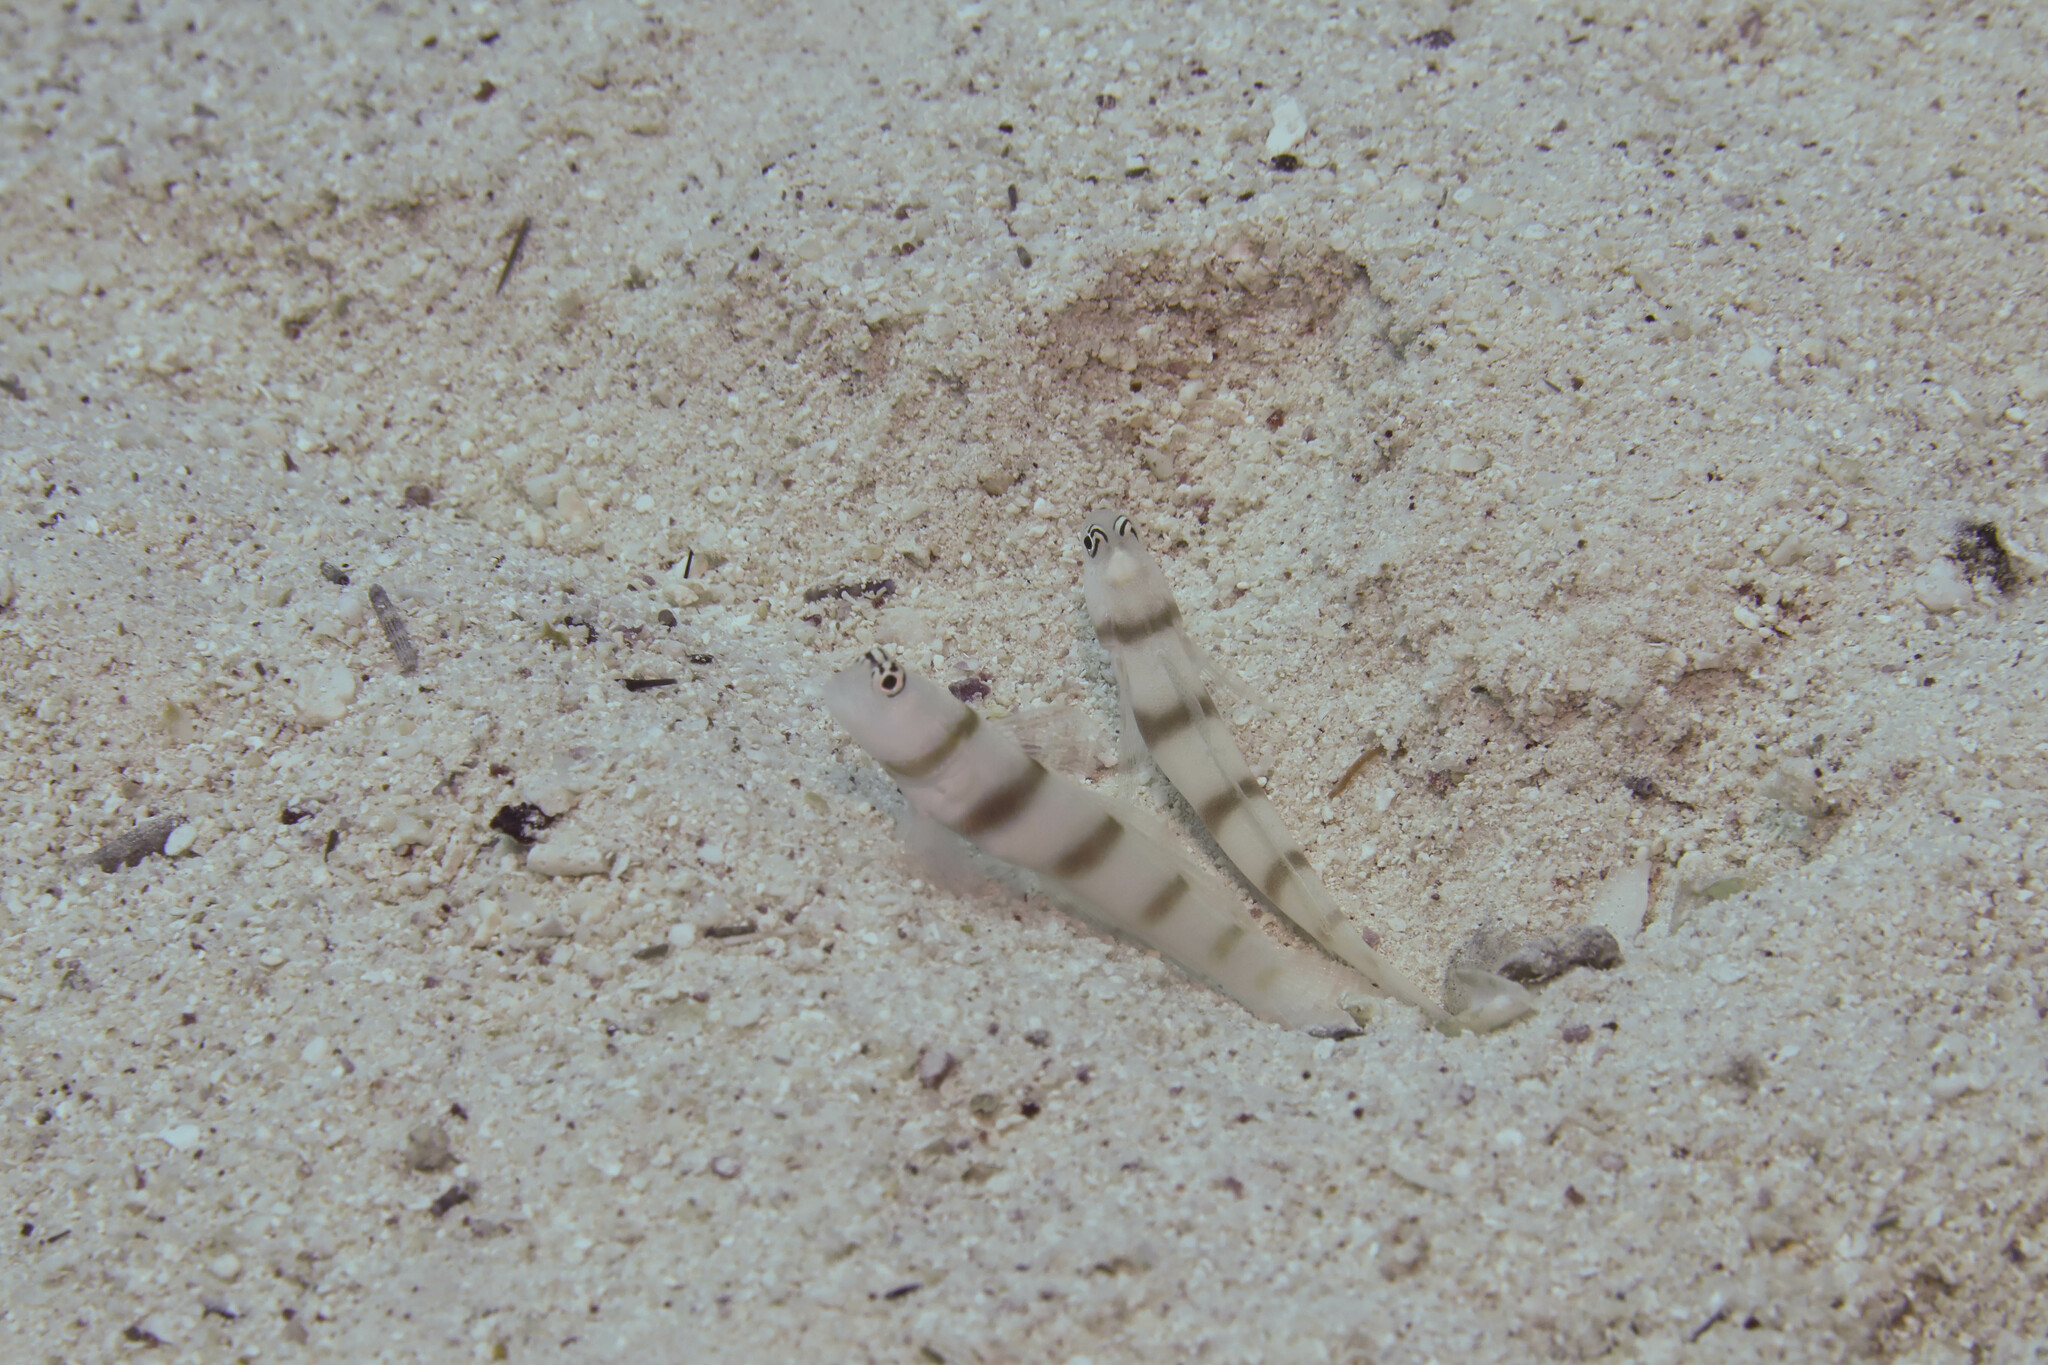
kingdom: Animalia
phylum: Chordata
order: Perciformes
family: Gobiidae
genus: Amblyeleotris
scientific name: Amblyeleotris steinitzi
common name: Steinitz' prawn-goby
